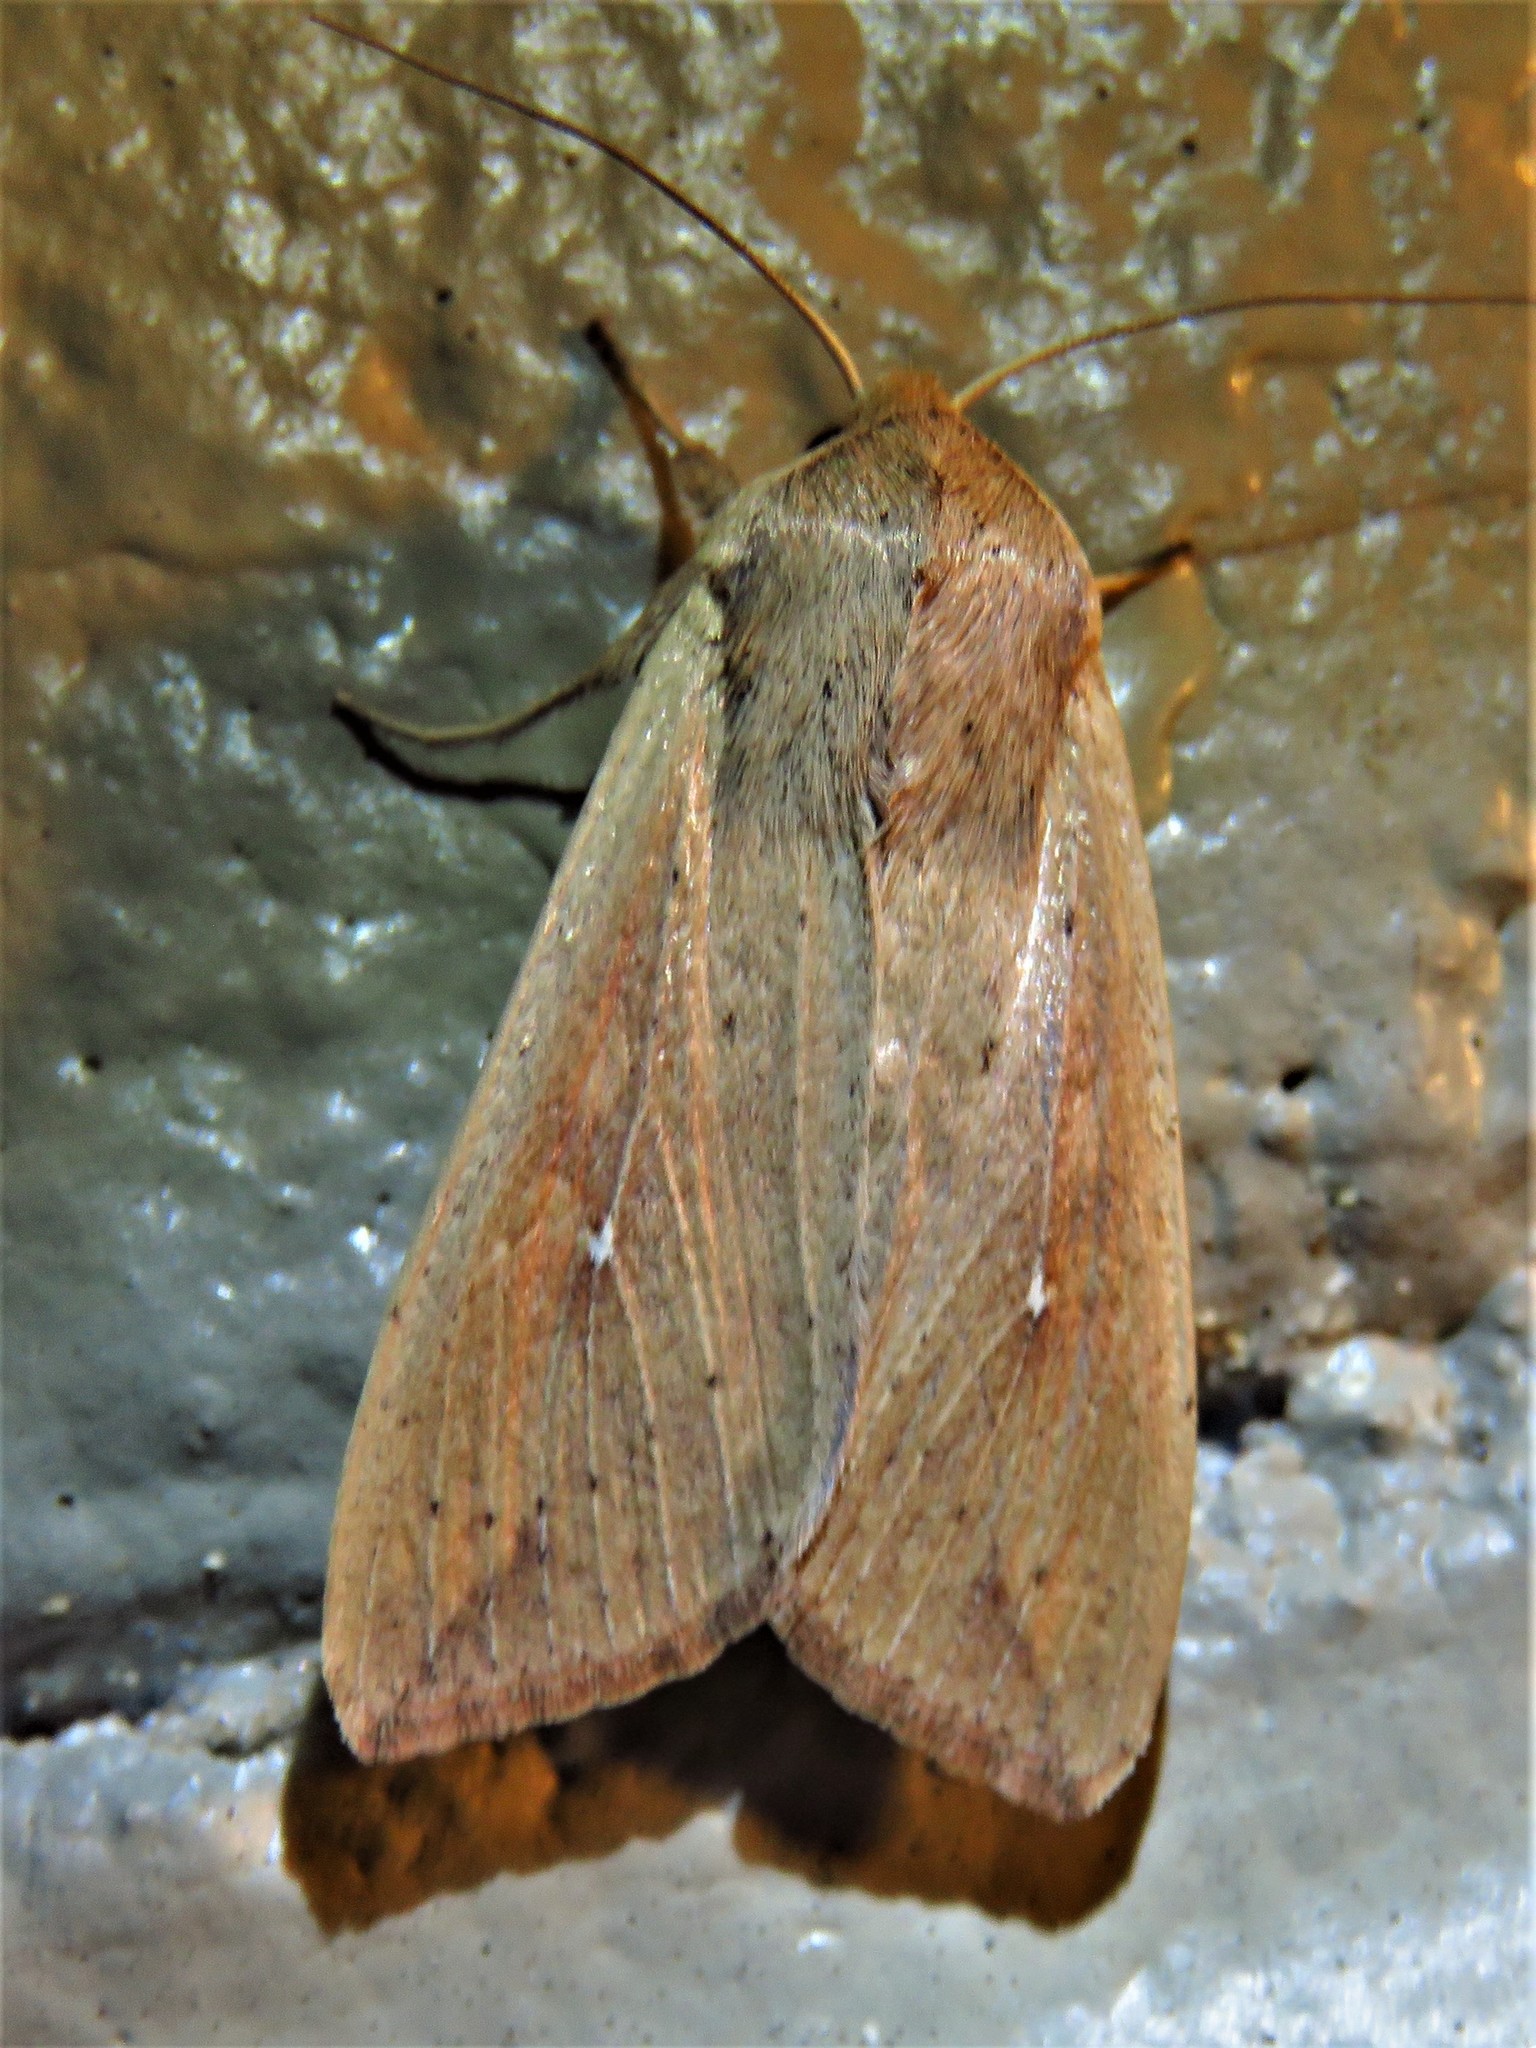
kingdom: Animalia
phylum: Arthropoda
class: Insecta
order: Lepidoptera
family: Noctuidae
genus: Mythimna
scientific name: Mythimna unipuncta
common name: White-speck
